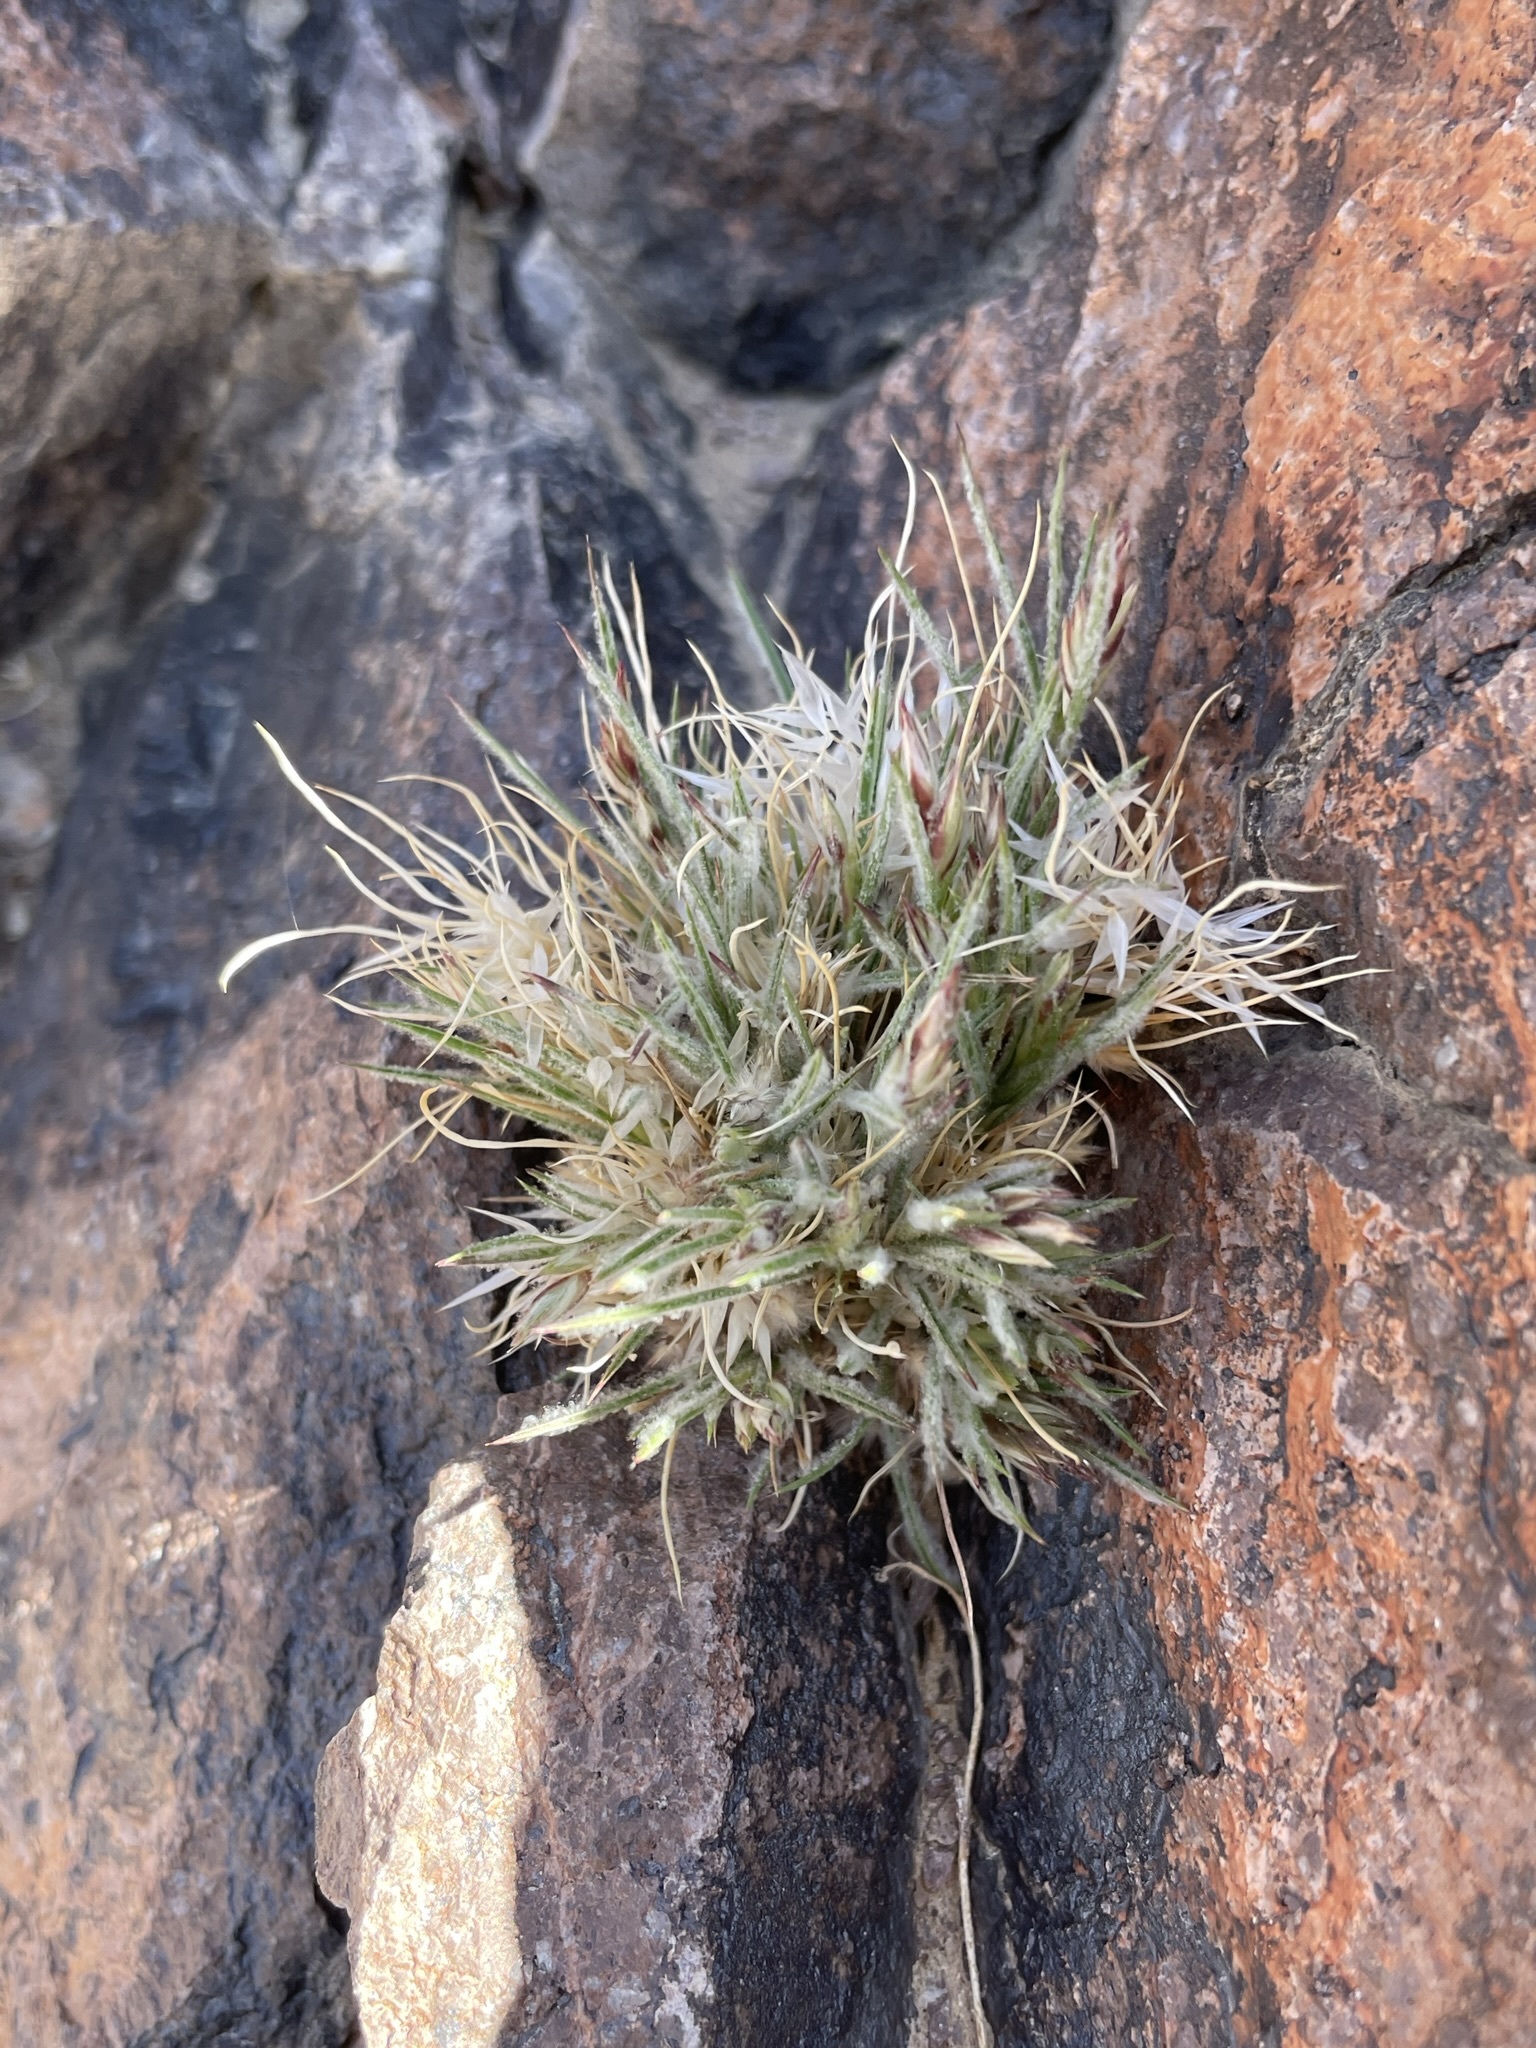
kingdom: Plantae
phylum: Tracheophyta
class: Liliopsida
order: Poales
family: Poaceae
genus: Dasyochloa
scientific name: Dasyochloa pulchella
